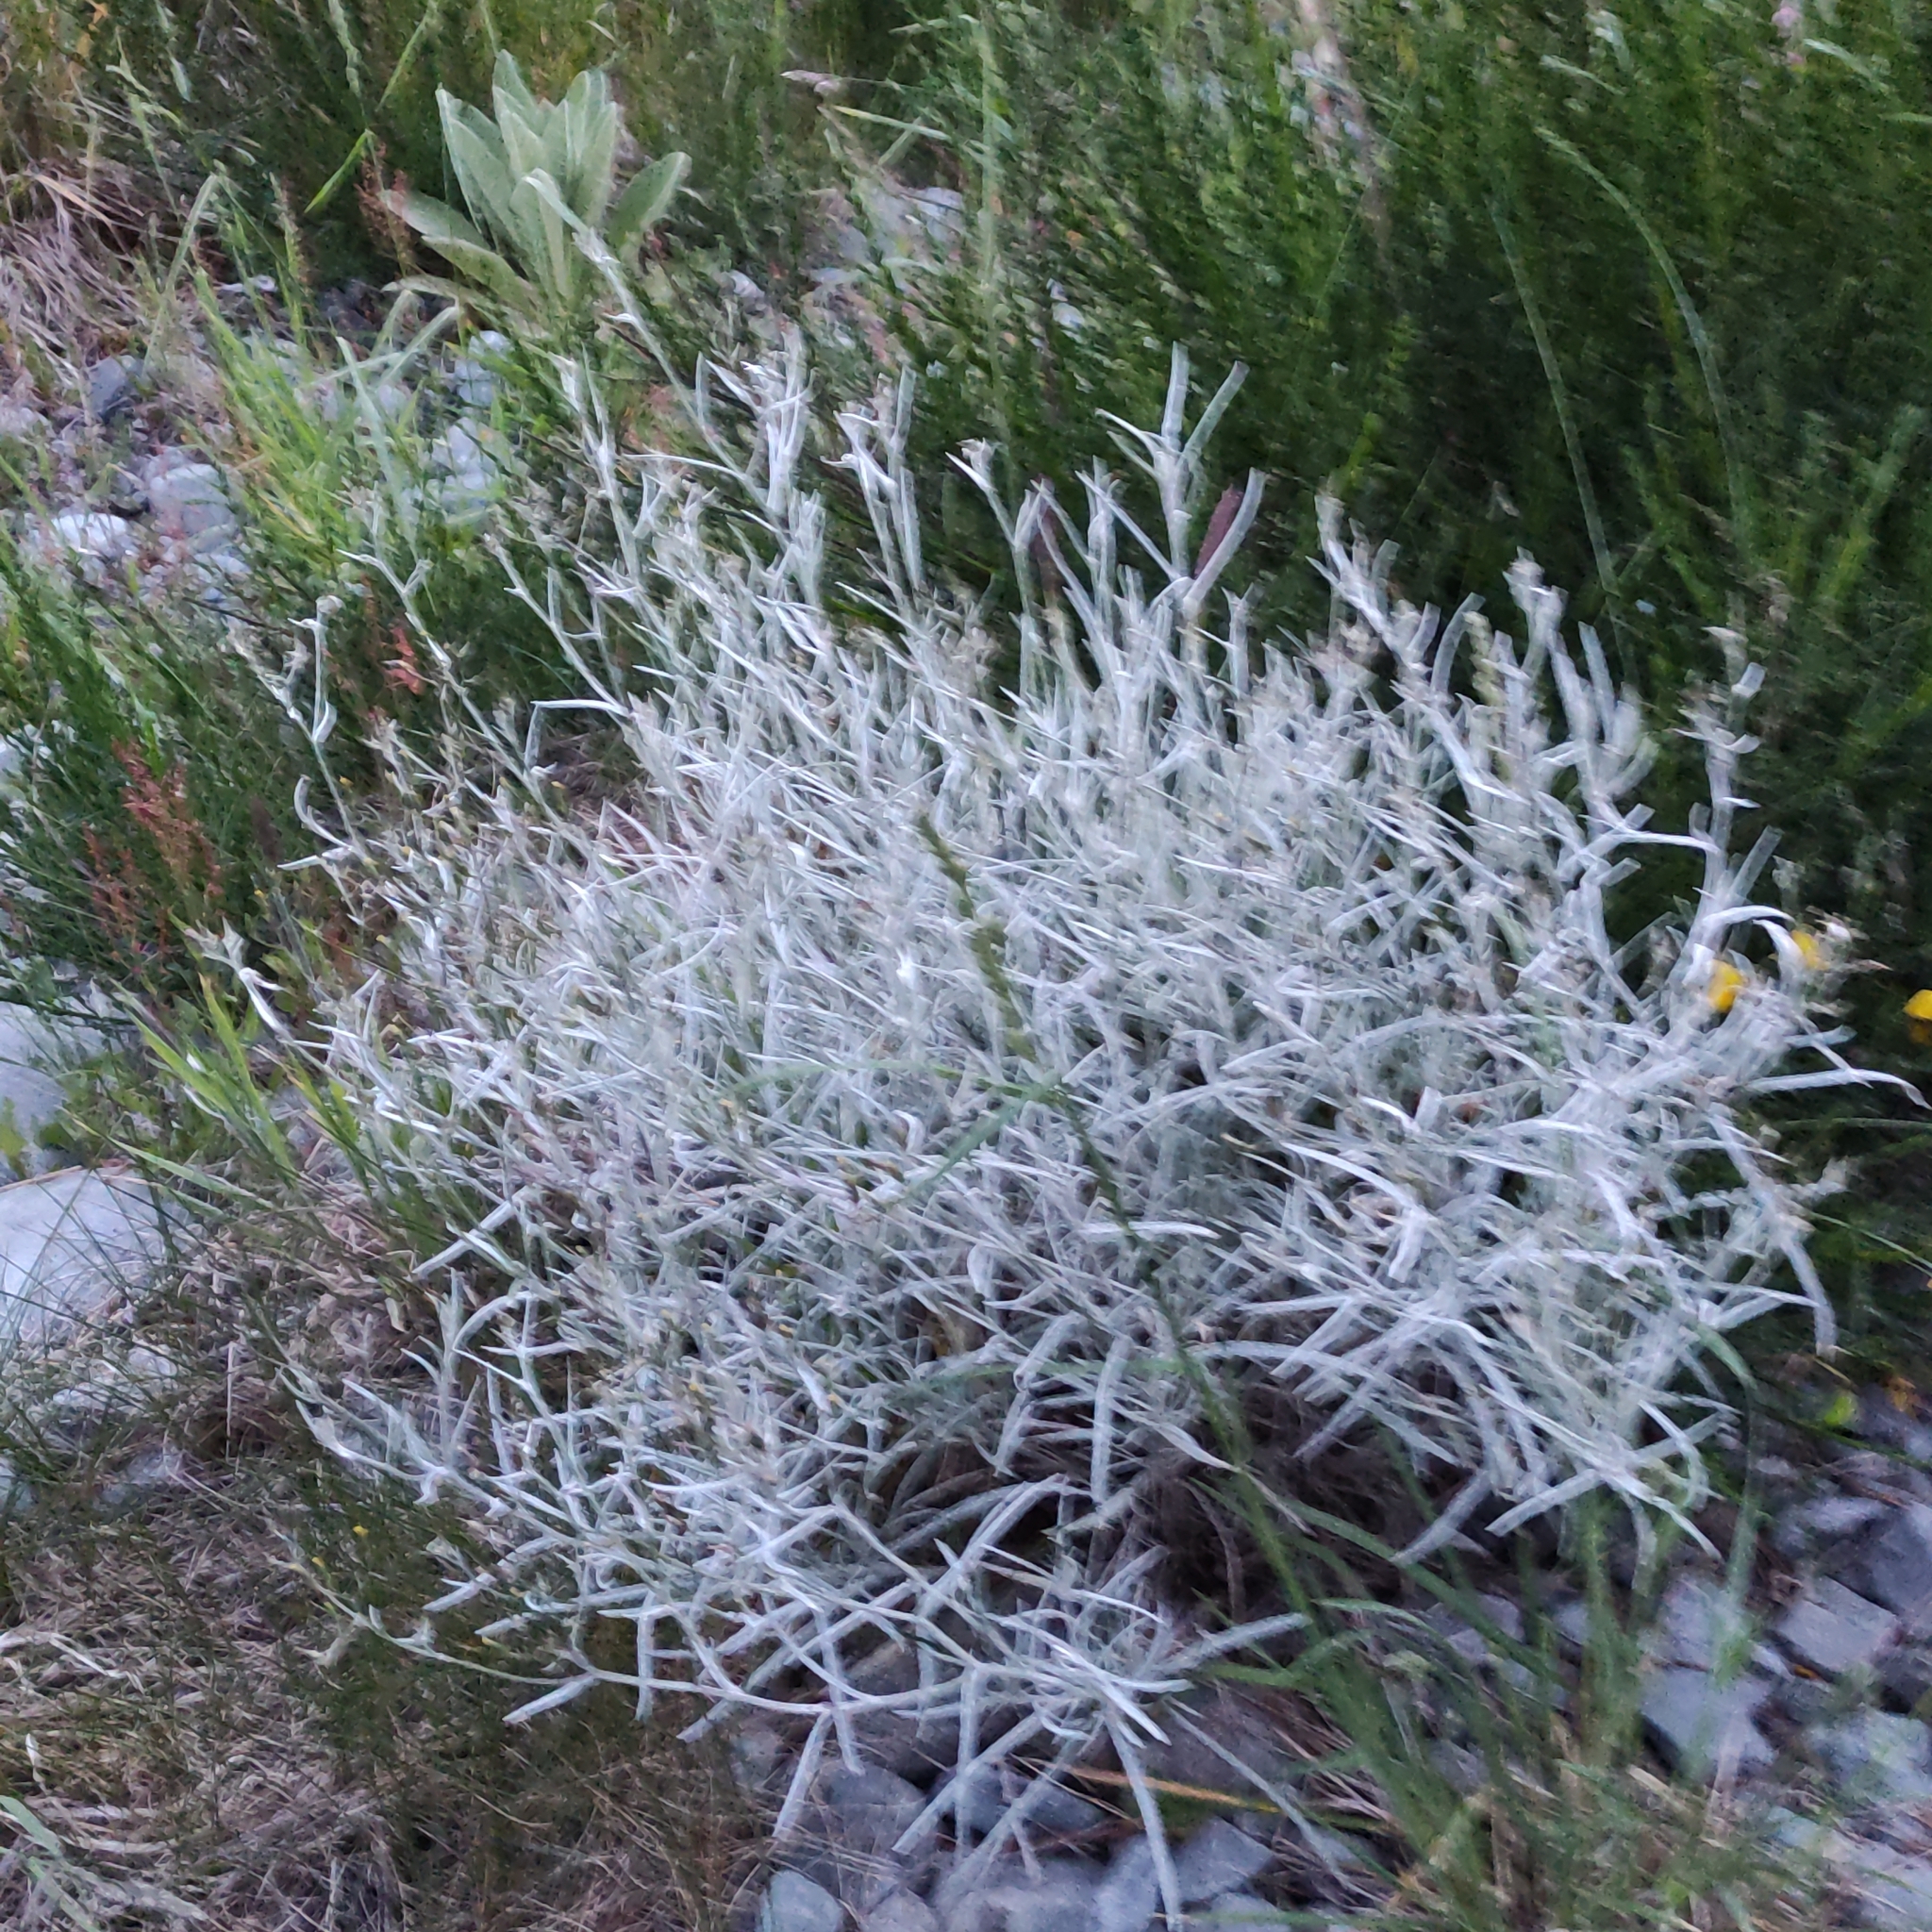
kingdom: Plantae
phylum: Tracheophyta
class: Magnoliopsida
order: Asterales
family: Asteraceae
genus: Senecio
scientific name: Senecio quadridentatus
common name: Cotton fireweed
